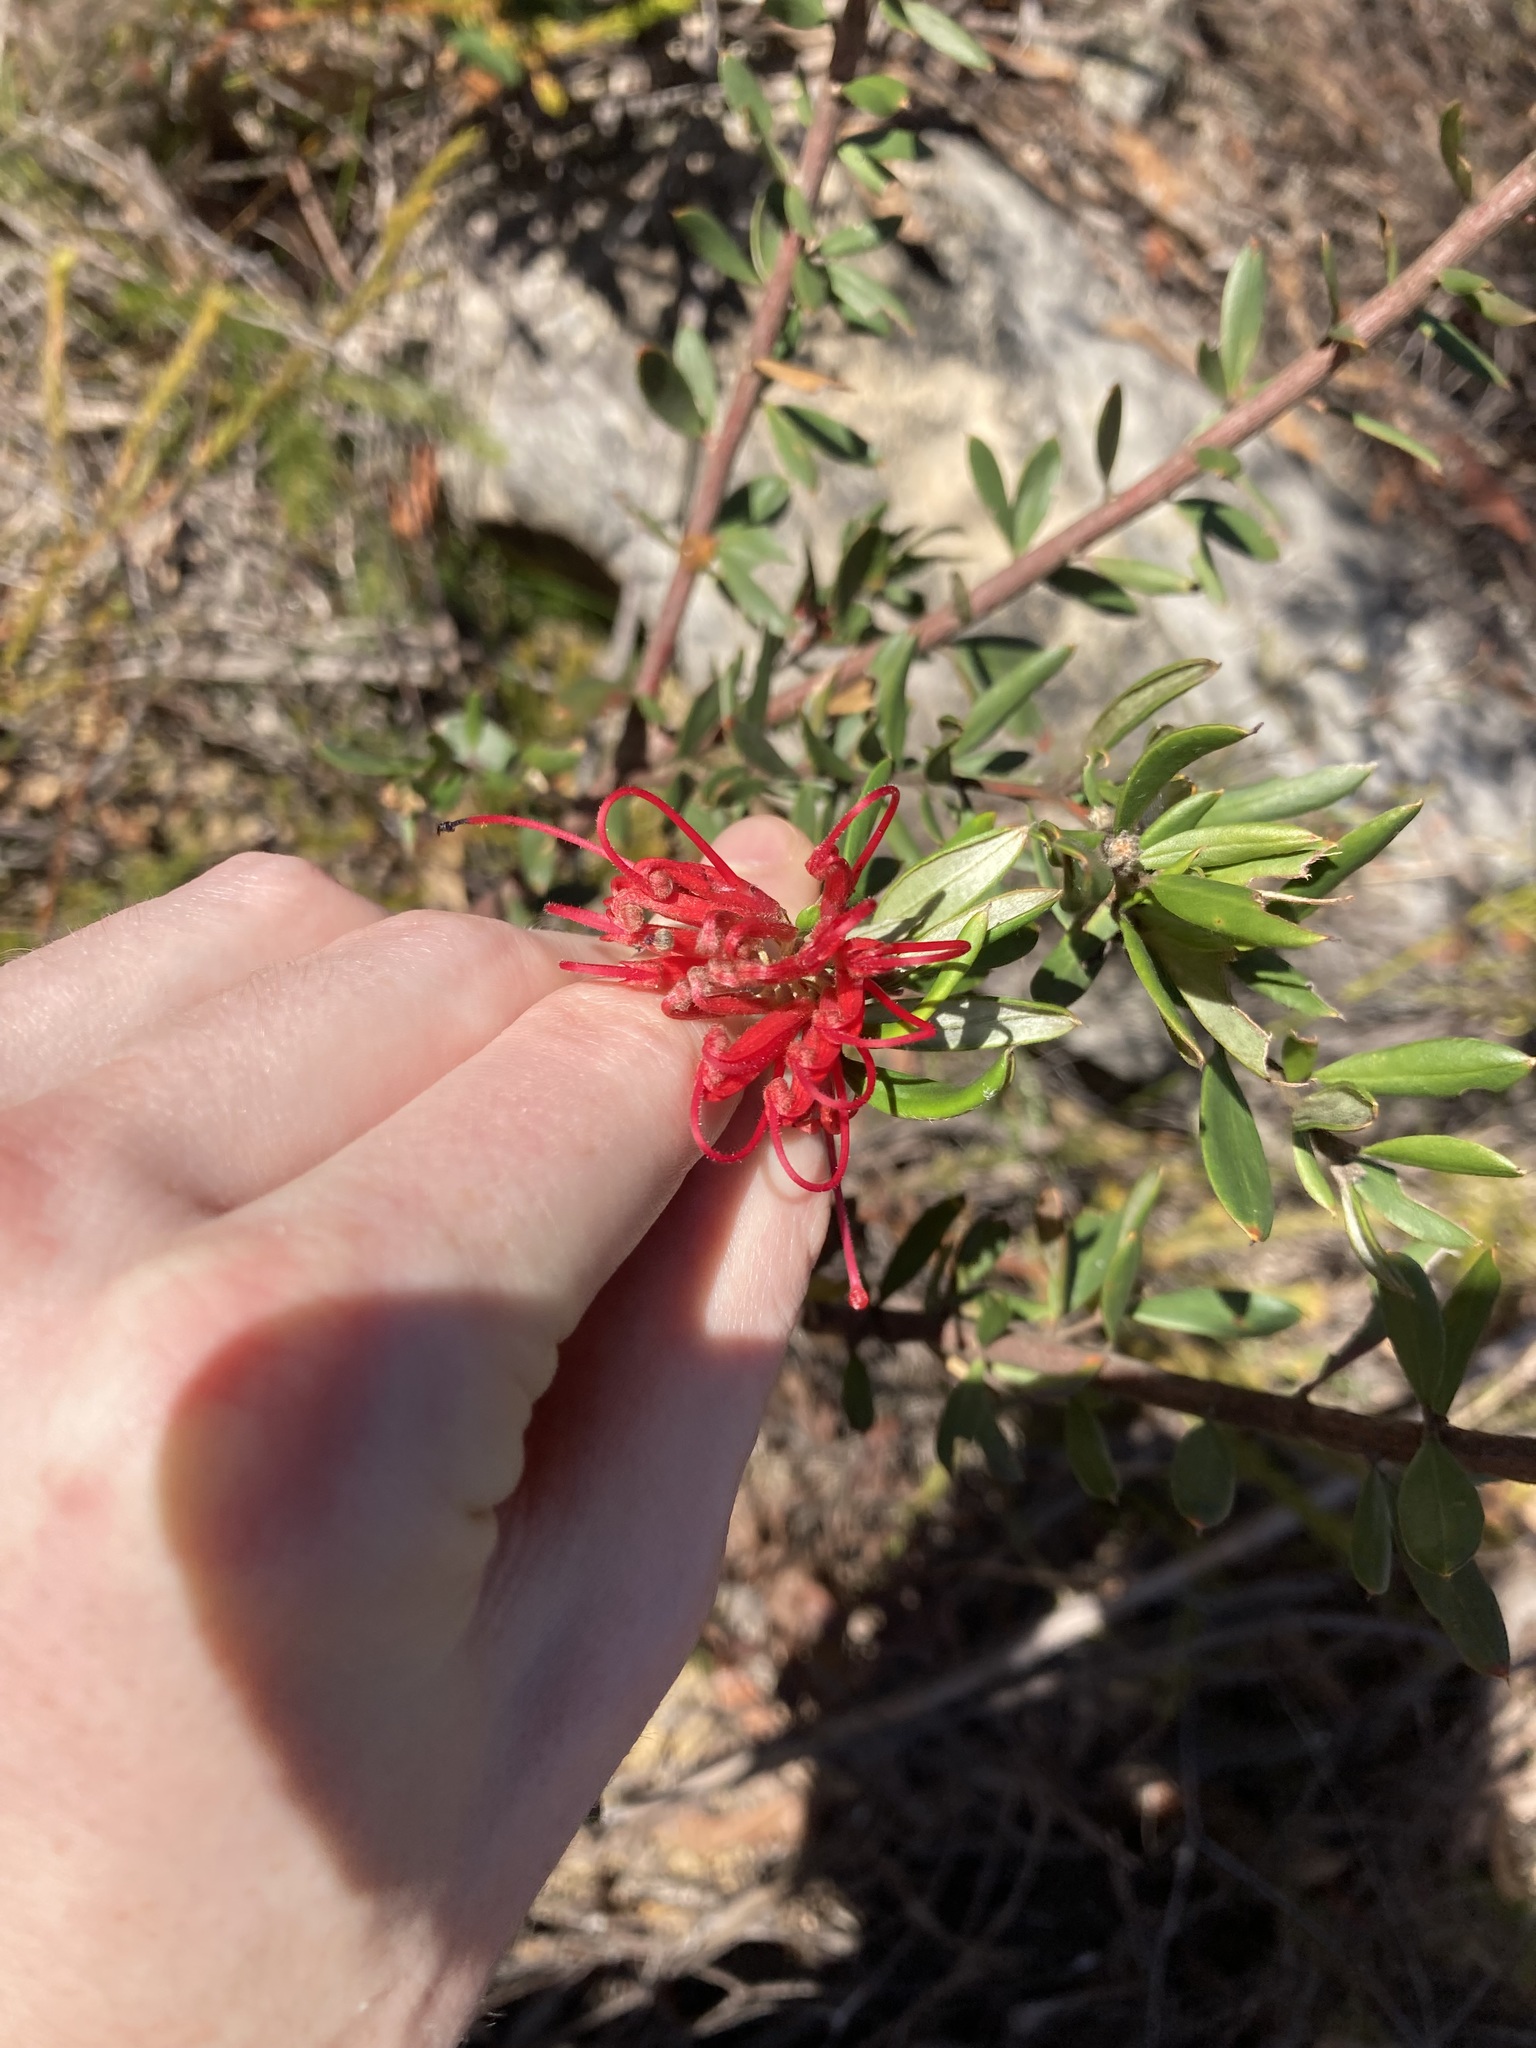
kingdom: Plantae
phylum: Tracheophyta
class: Magnoliopsida
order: Proteales
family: Proteaceae
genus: Grevillea
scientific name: Grevillea speciosa
